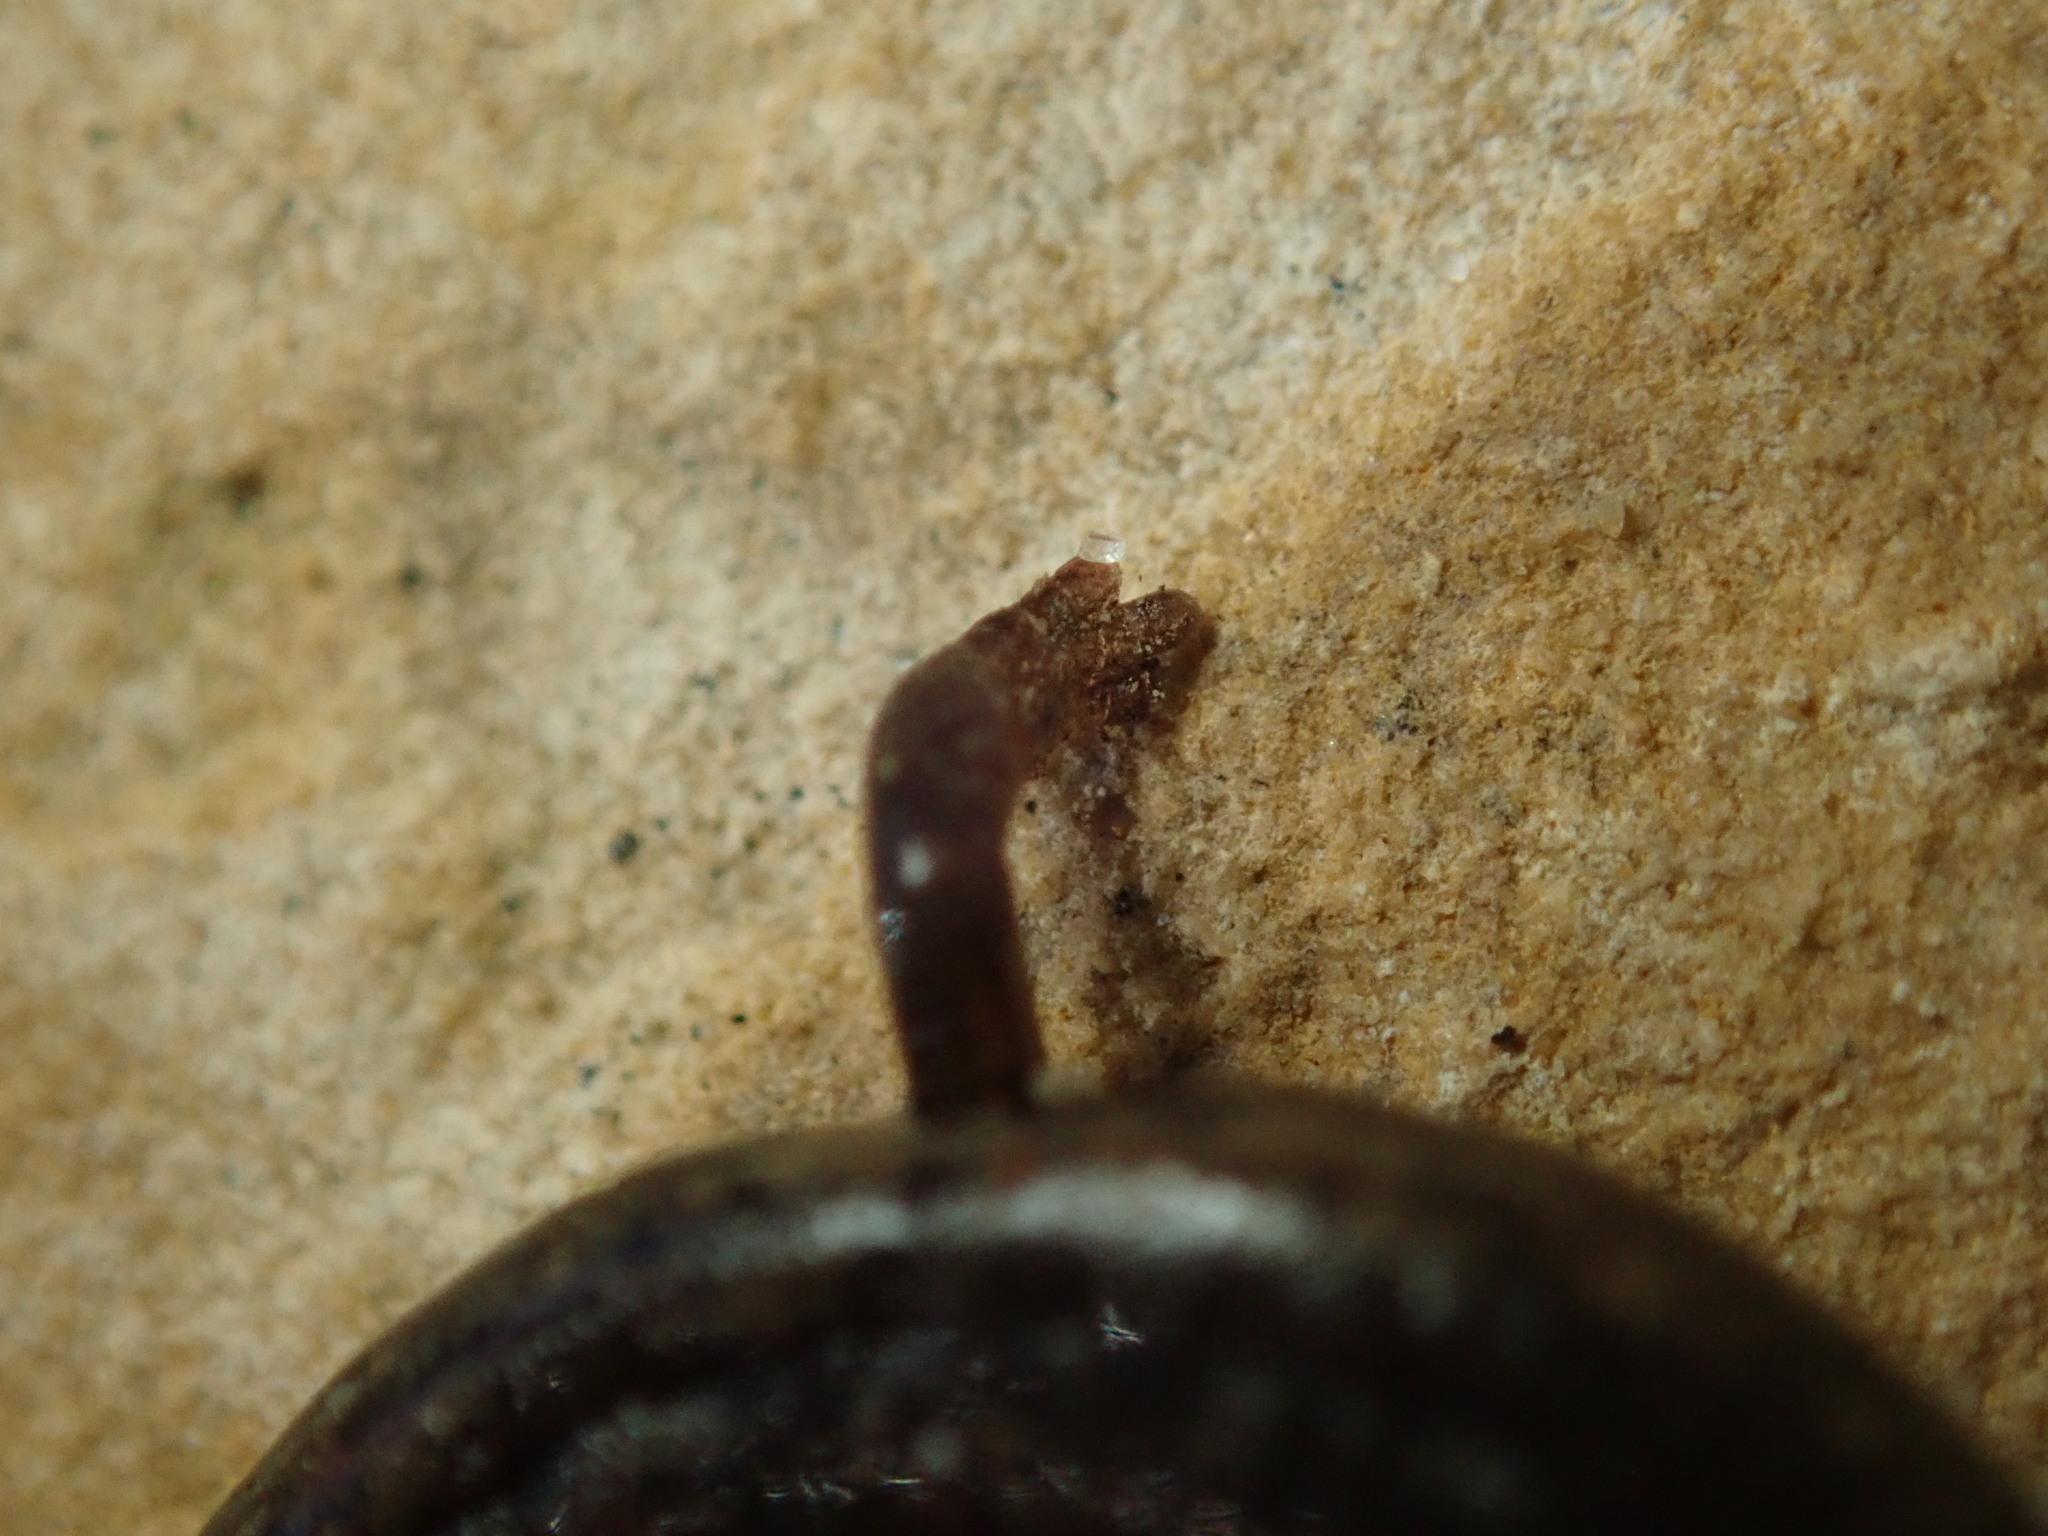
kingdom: Animalia
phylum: Chordata
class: Amphibia
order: Caudata
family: Plethodontidae
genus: Batrachoseps
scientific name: Batrachoseps nigriventris
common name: Black-bellied slender salamander
